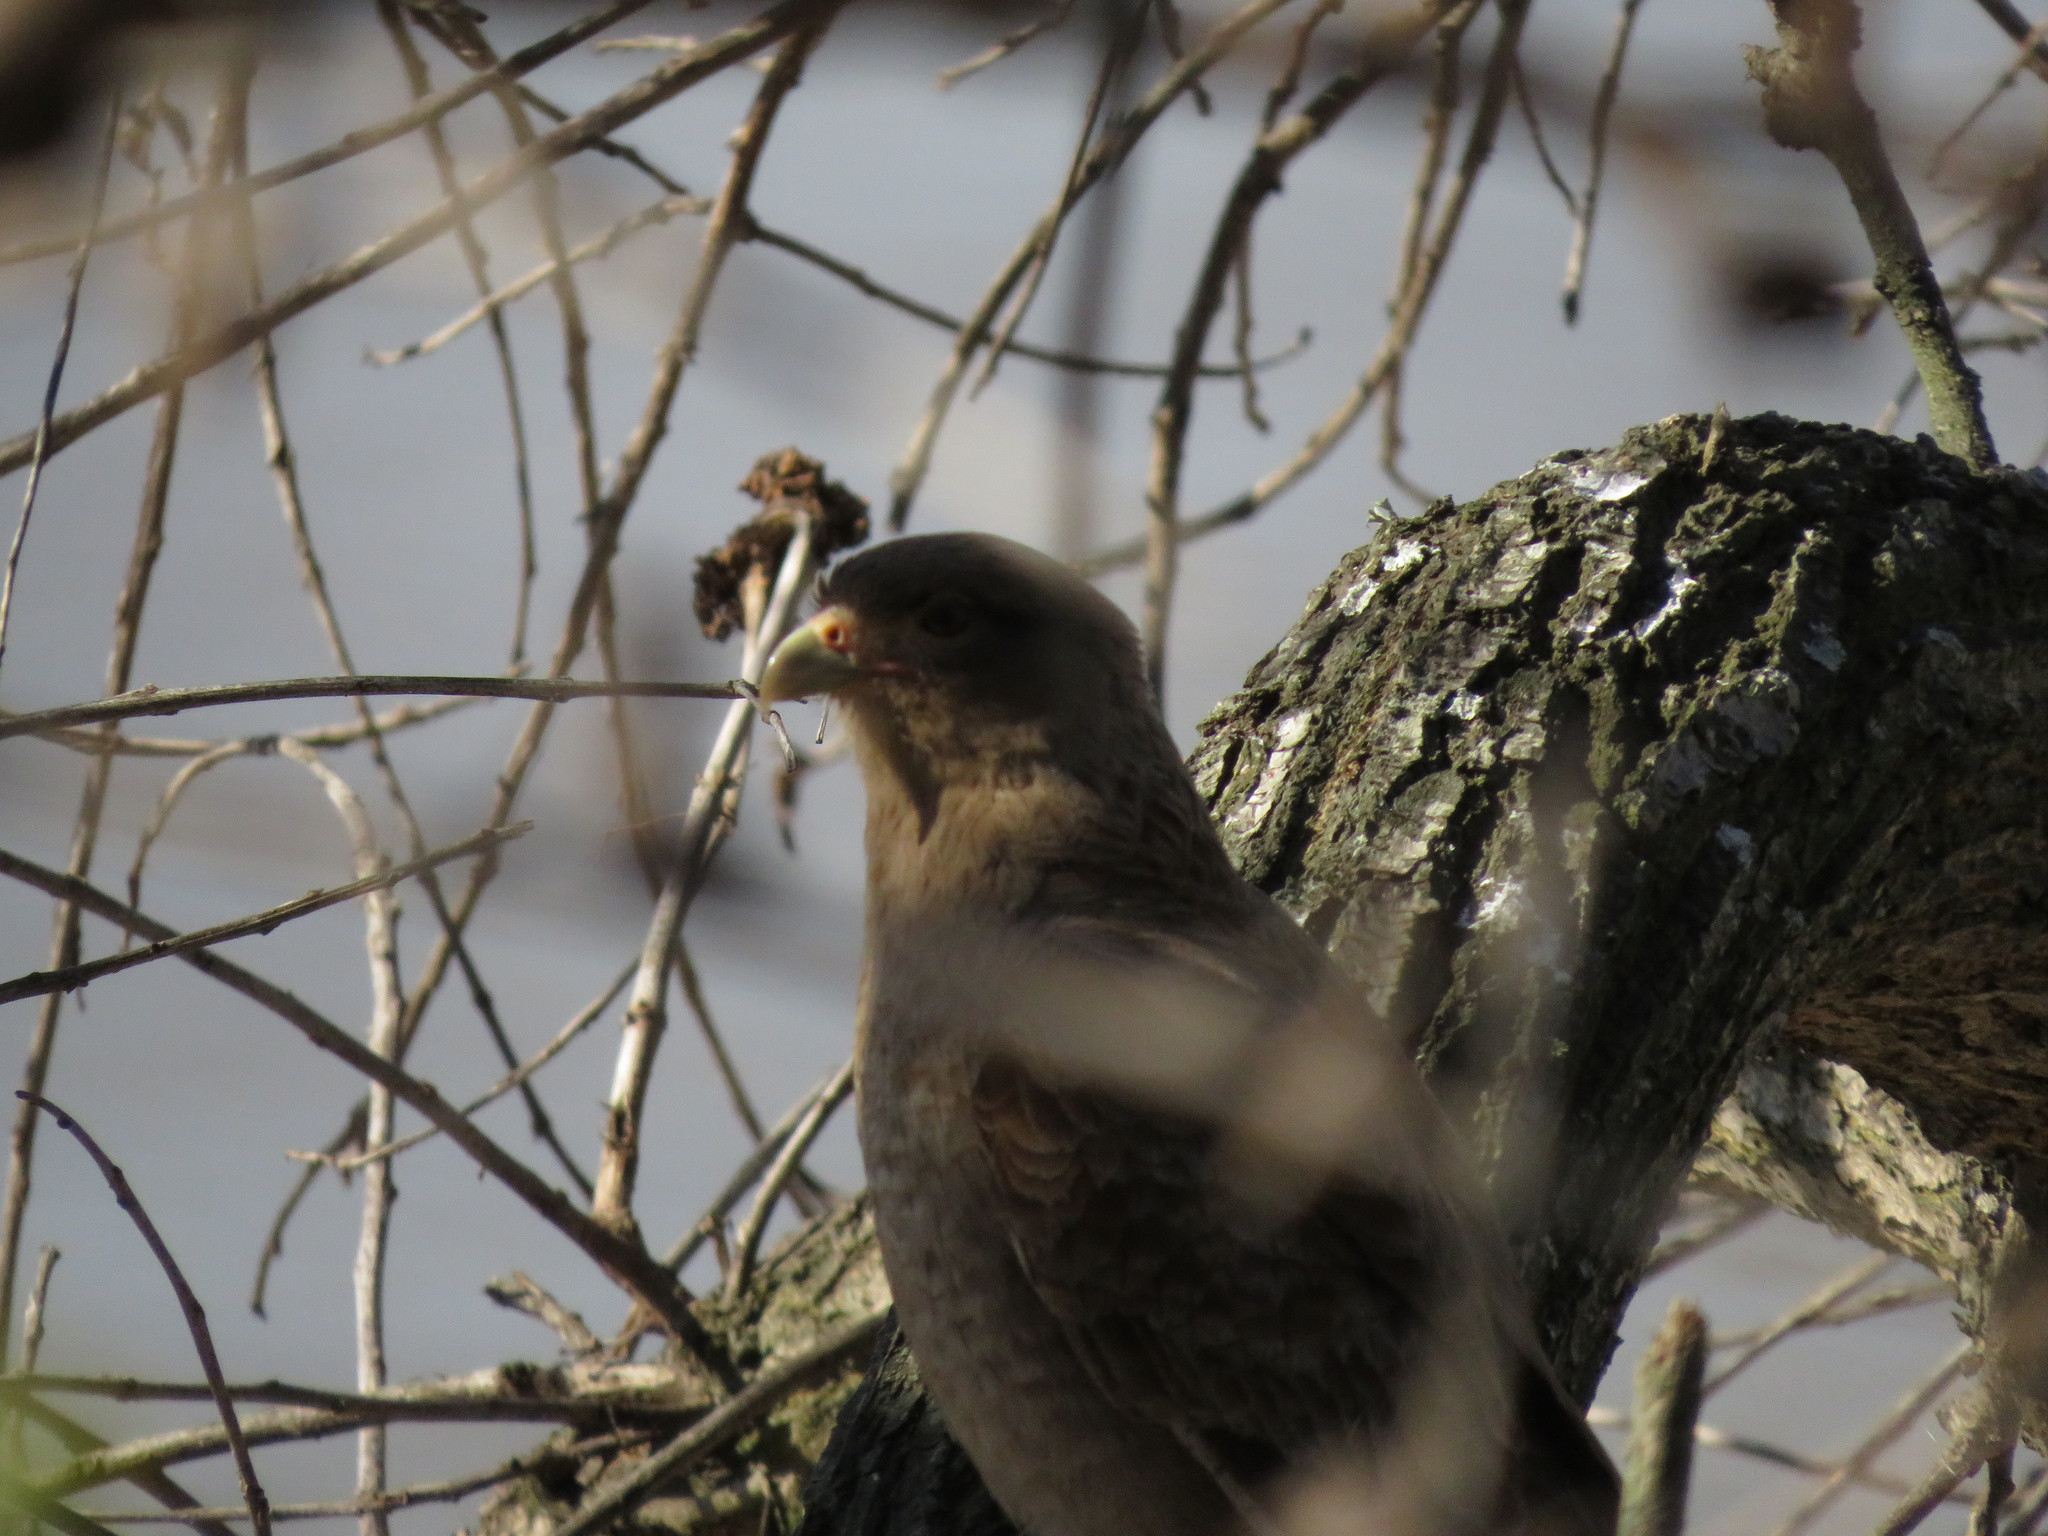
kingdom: Animalia
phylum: Chordata
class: Aves
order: Falconiformes
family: Falconidae
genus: Daptrius
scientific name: Daptrius
